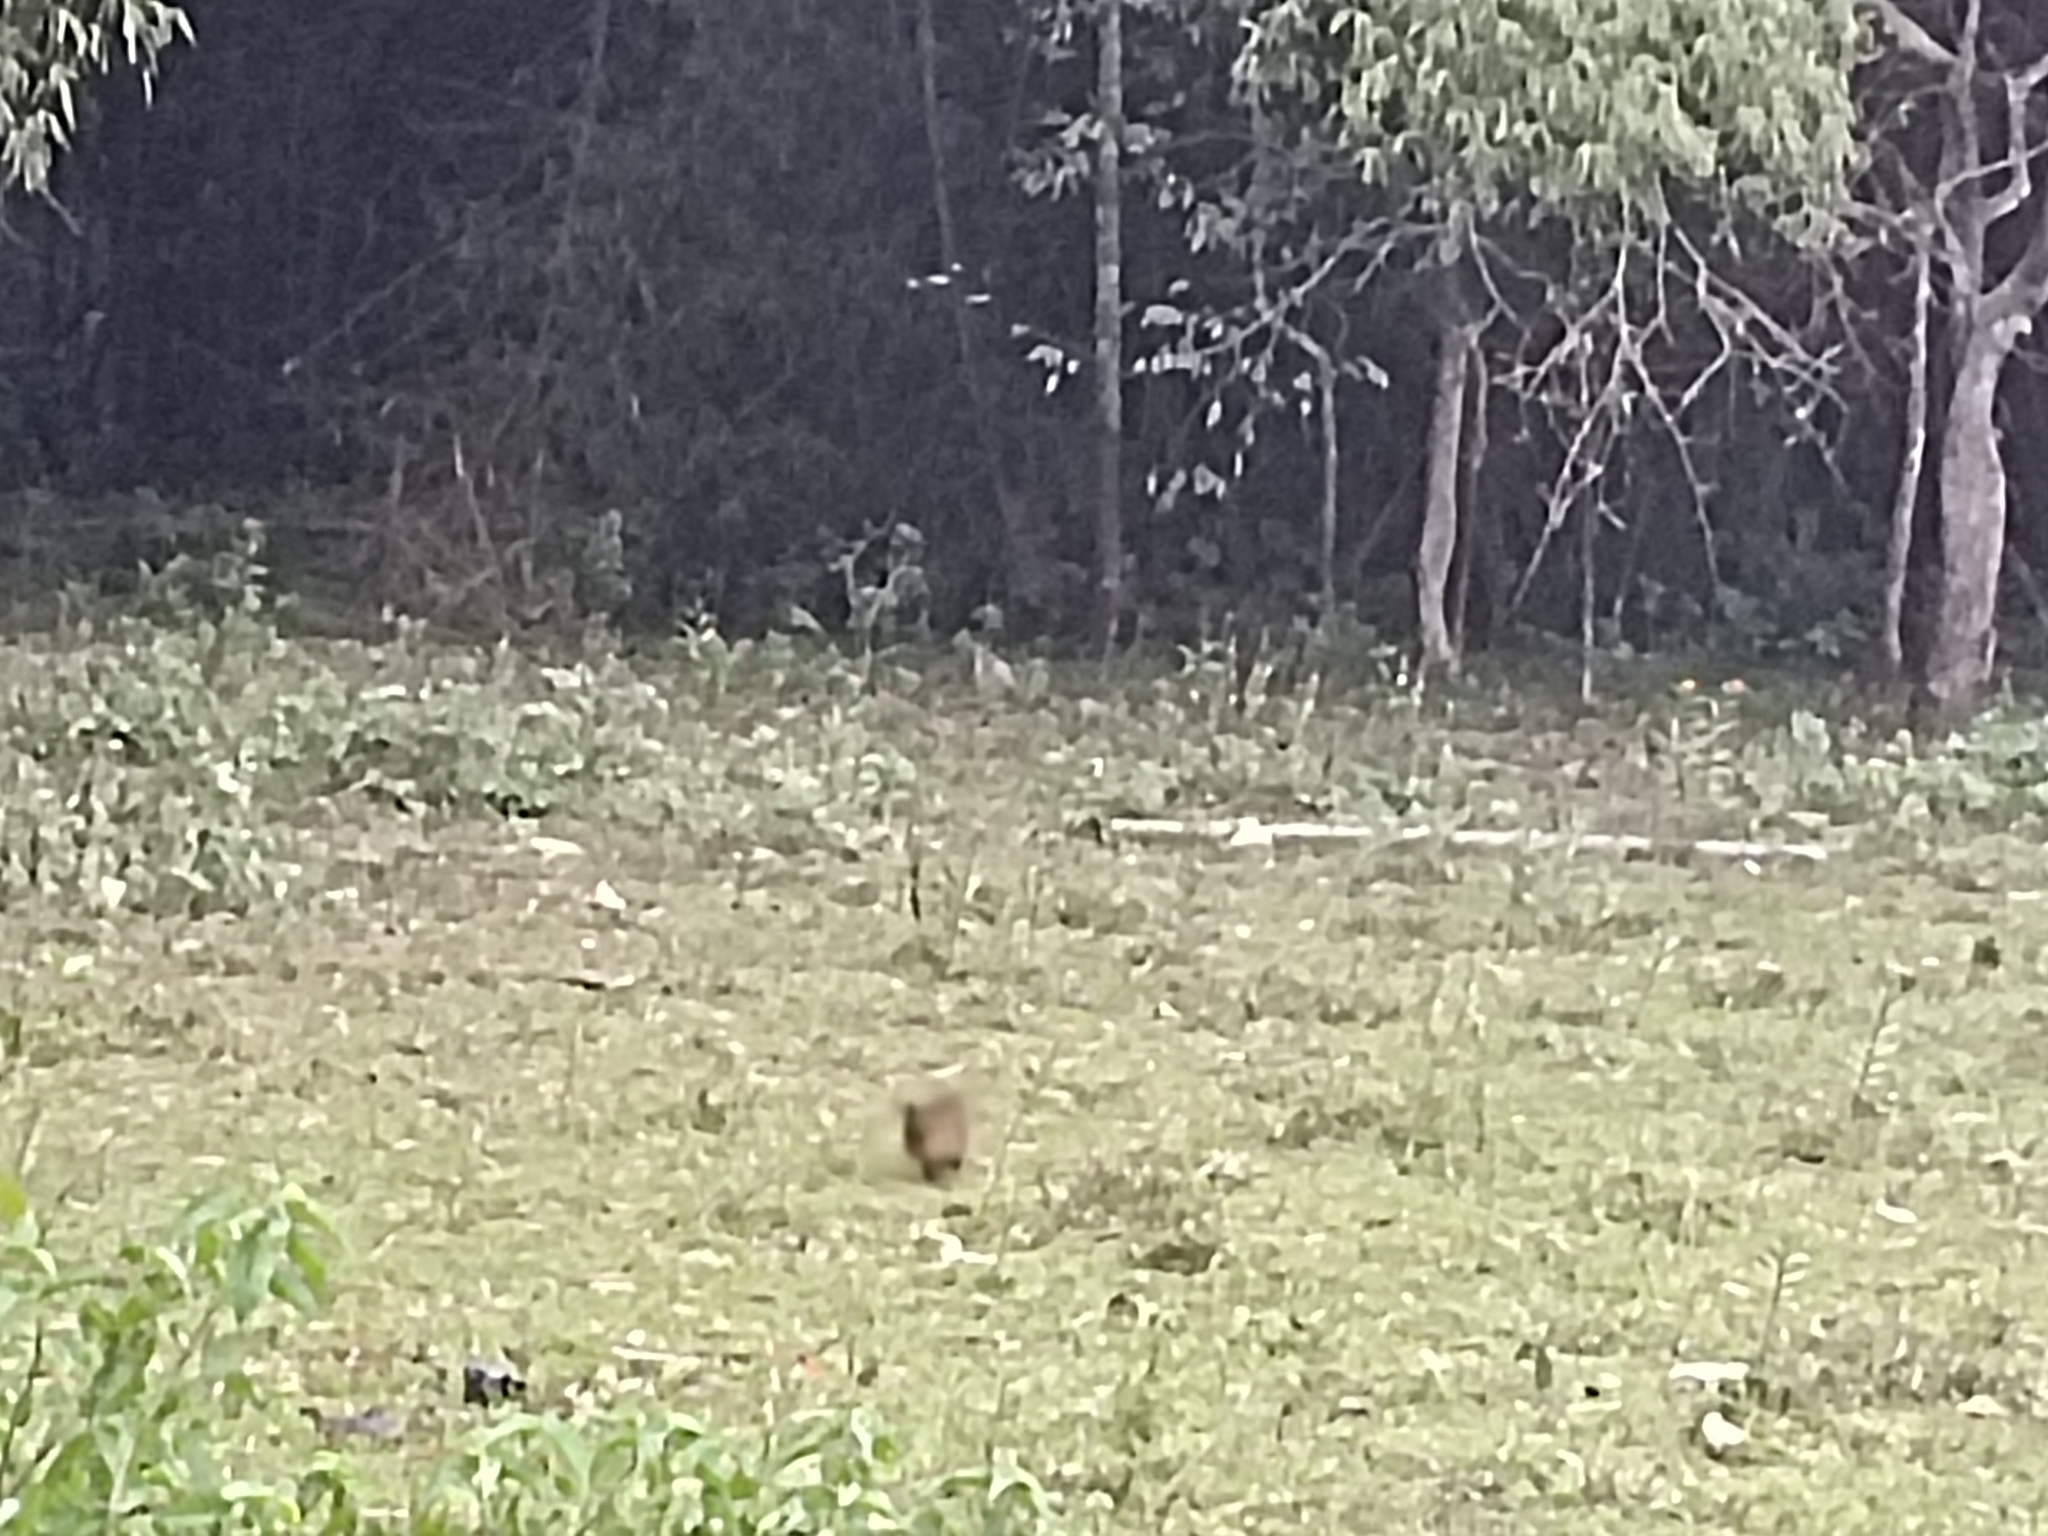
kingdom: Animalia
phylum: Chordata
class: Mammalia
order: Carnivora
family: Herpestidae
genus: Herpestes
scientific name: Herpestes vitticollis
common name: Stripe-necked mongoose
